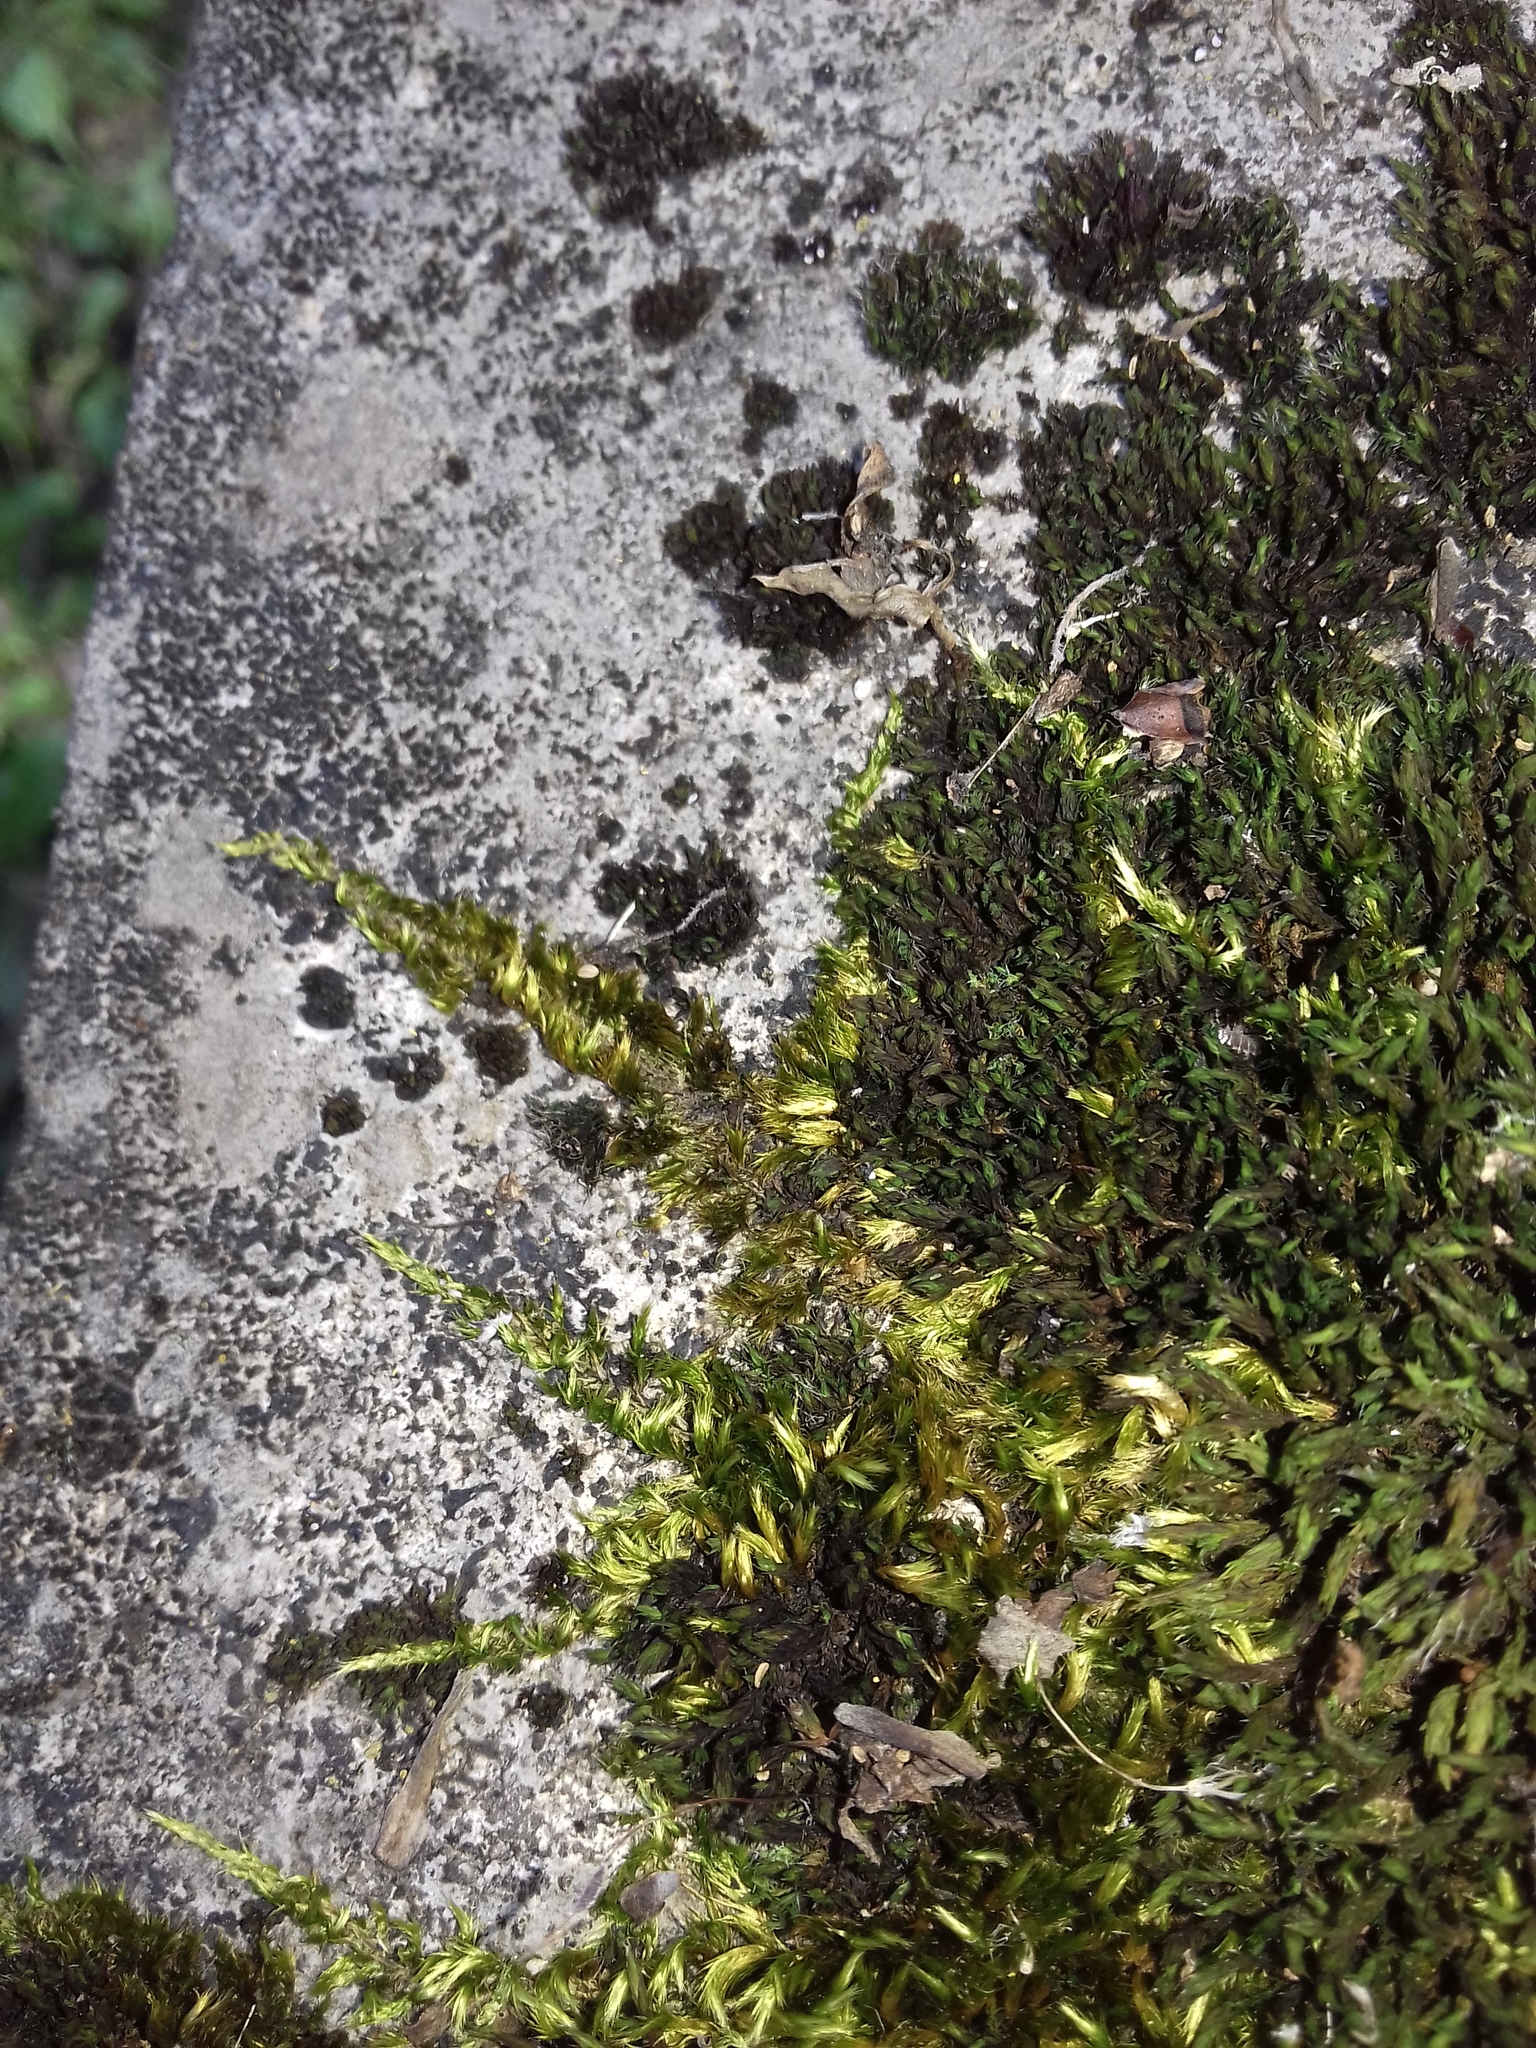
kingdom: Plantae
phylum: Bryophyta
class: Bryopsida
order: Hypnales
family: Brachytheciaceae
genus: Homalothecium
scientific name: Homalothecium sericeum
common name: Silky wall feather-moss
